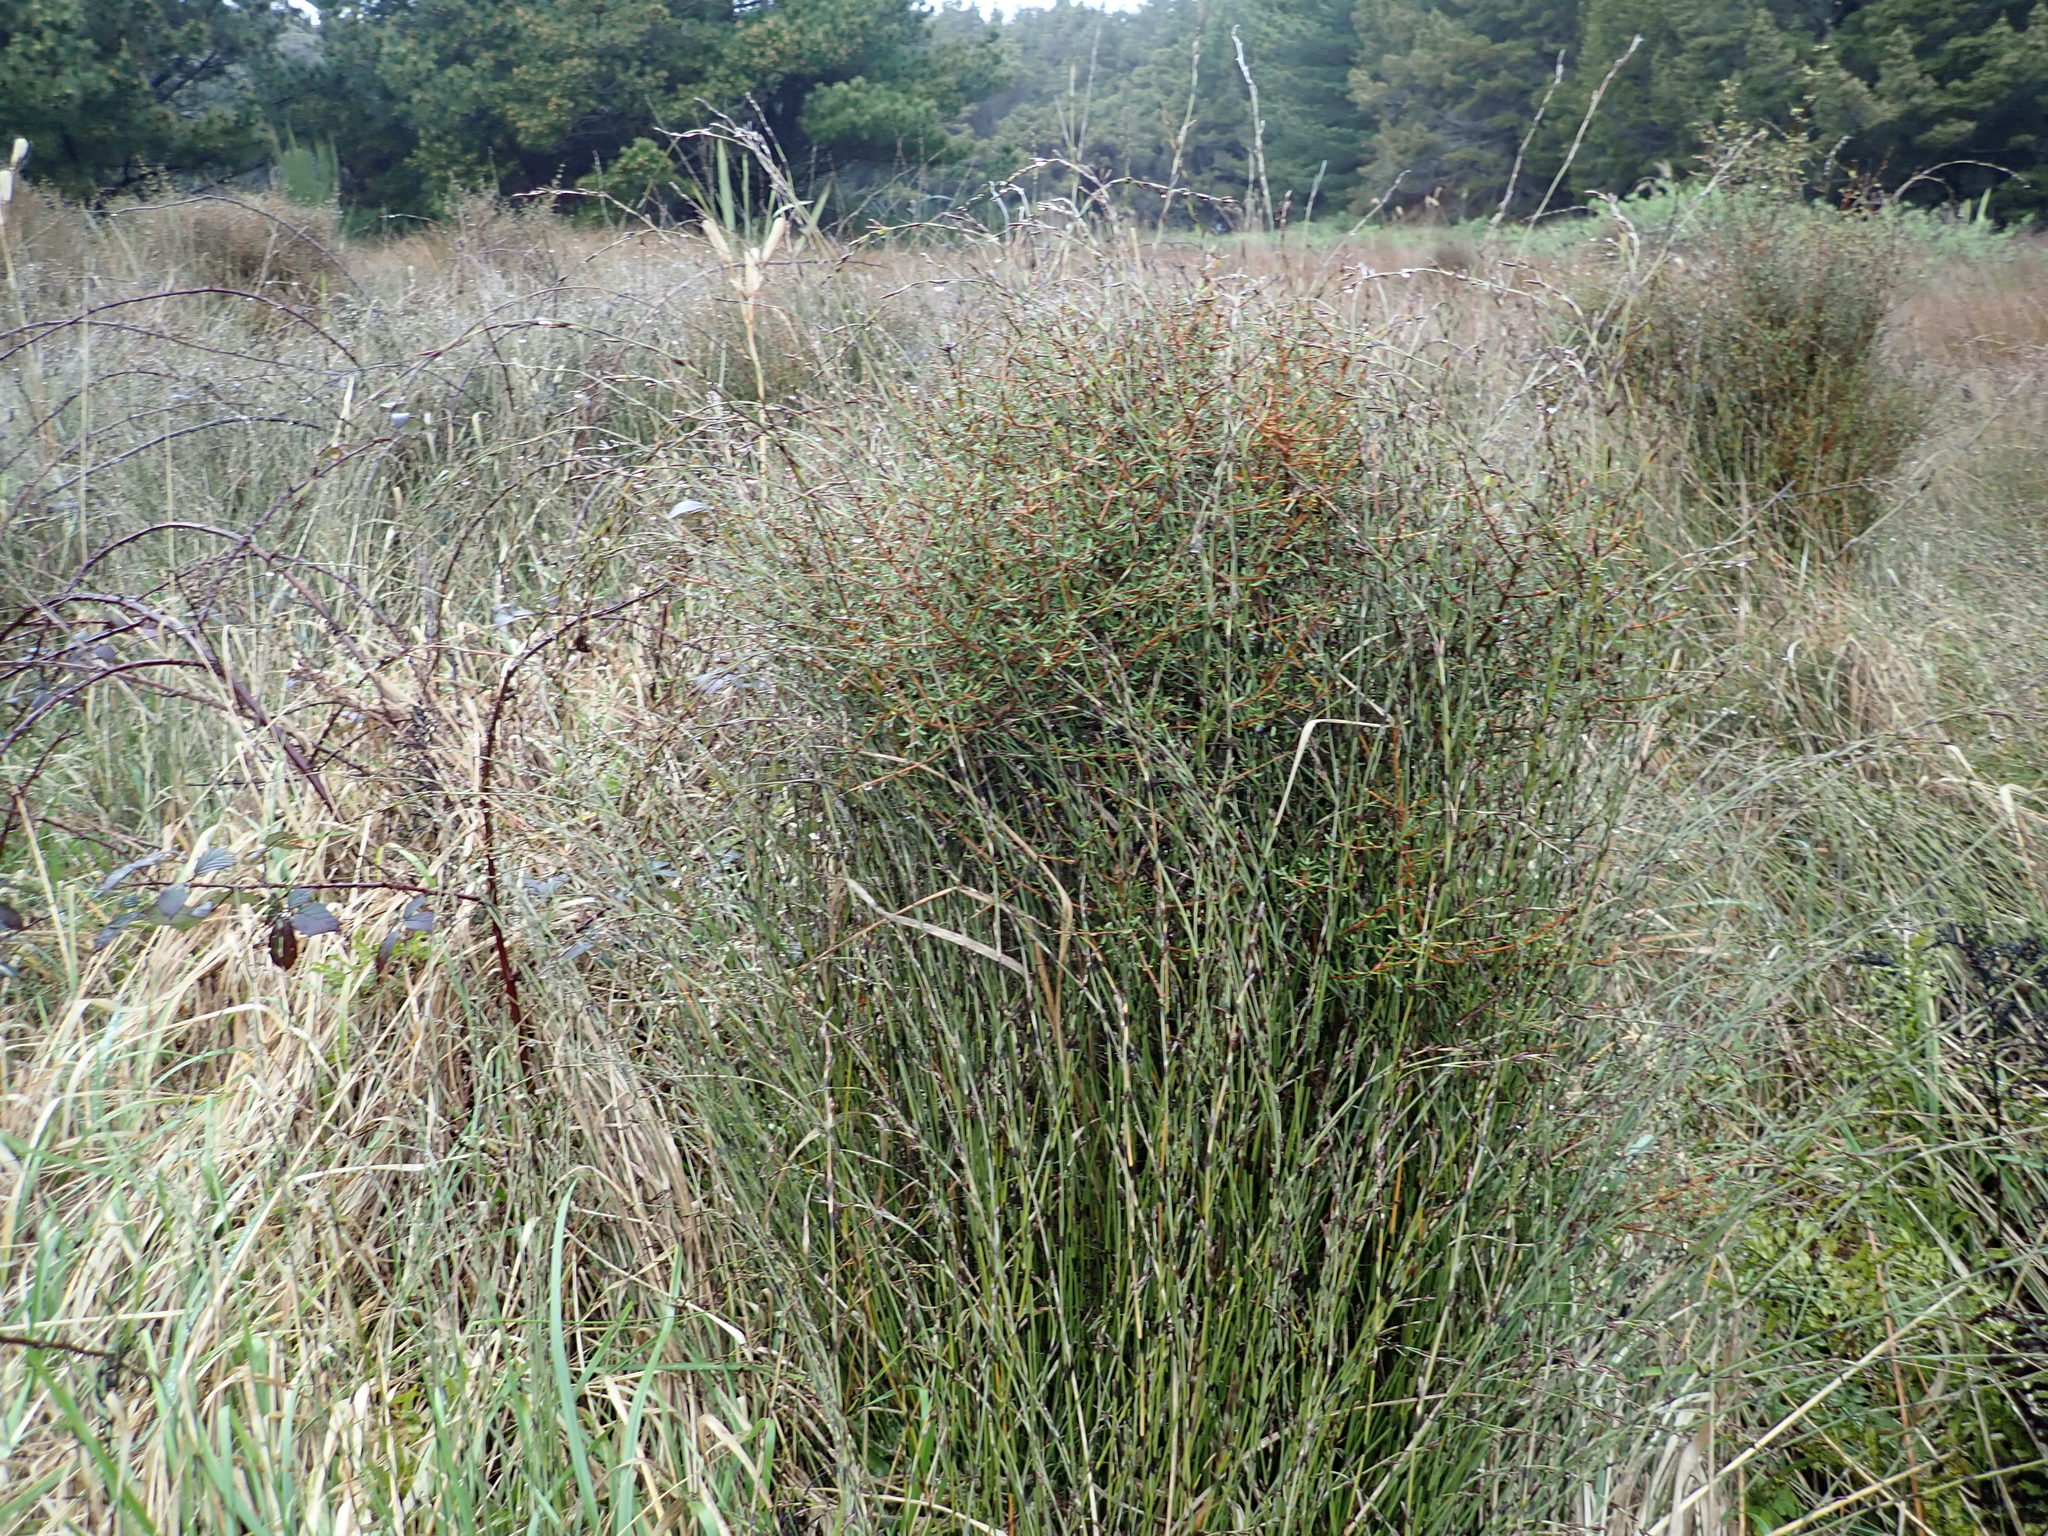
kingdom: Plantae
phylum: Tracheophyta
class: Magnoliopsida
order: Gentianales
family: Rubiaceae
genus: Coprosma
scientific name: Coprosma propinqua
